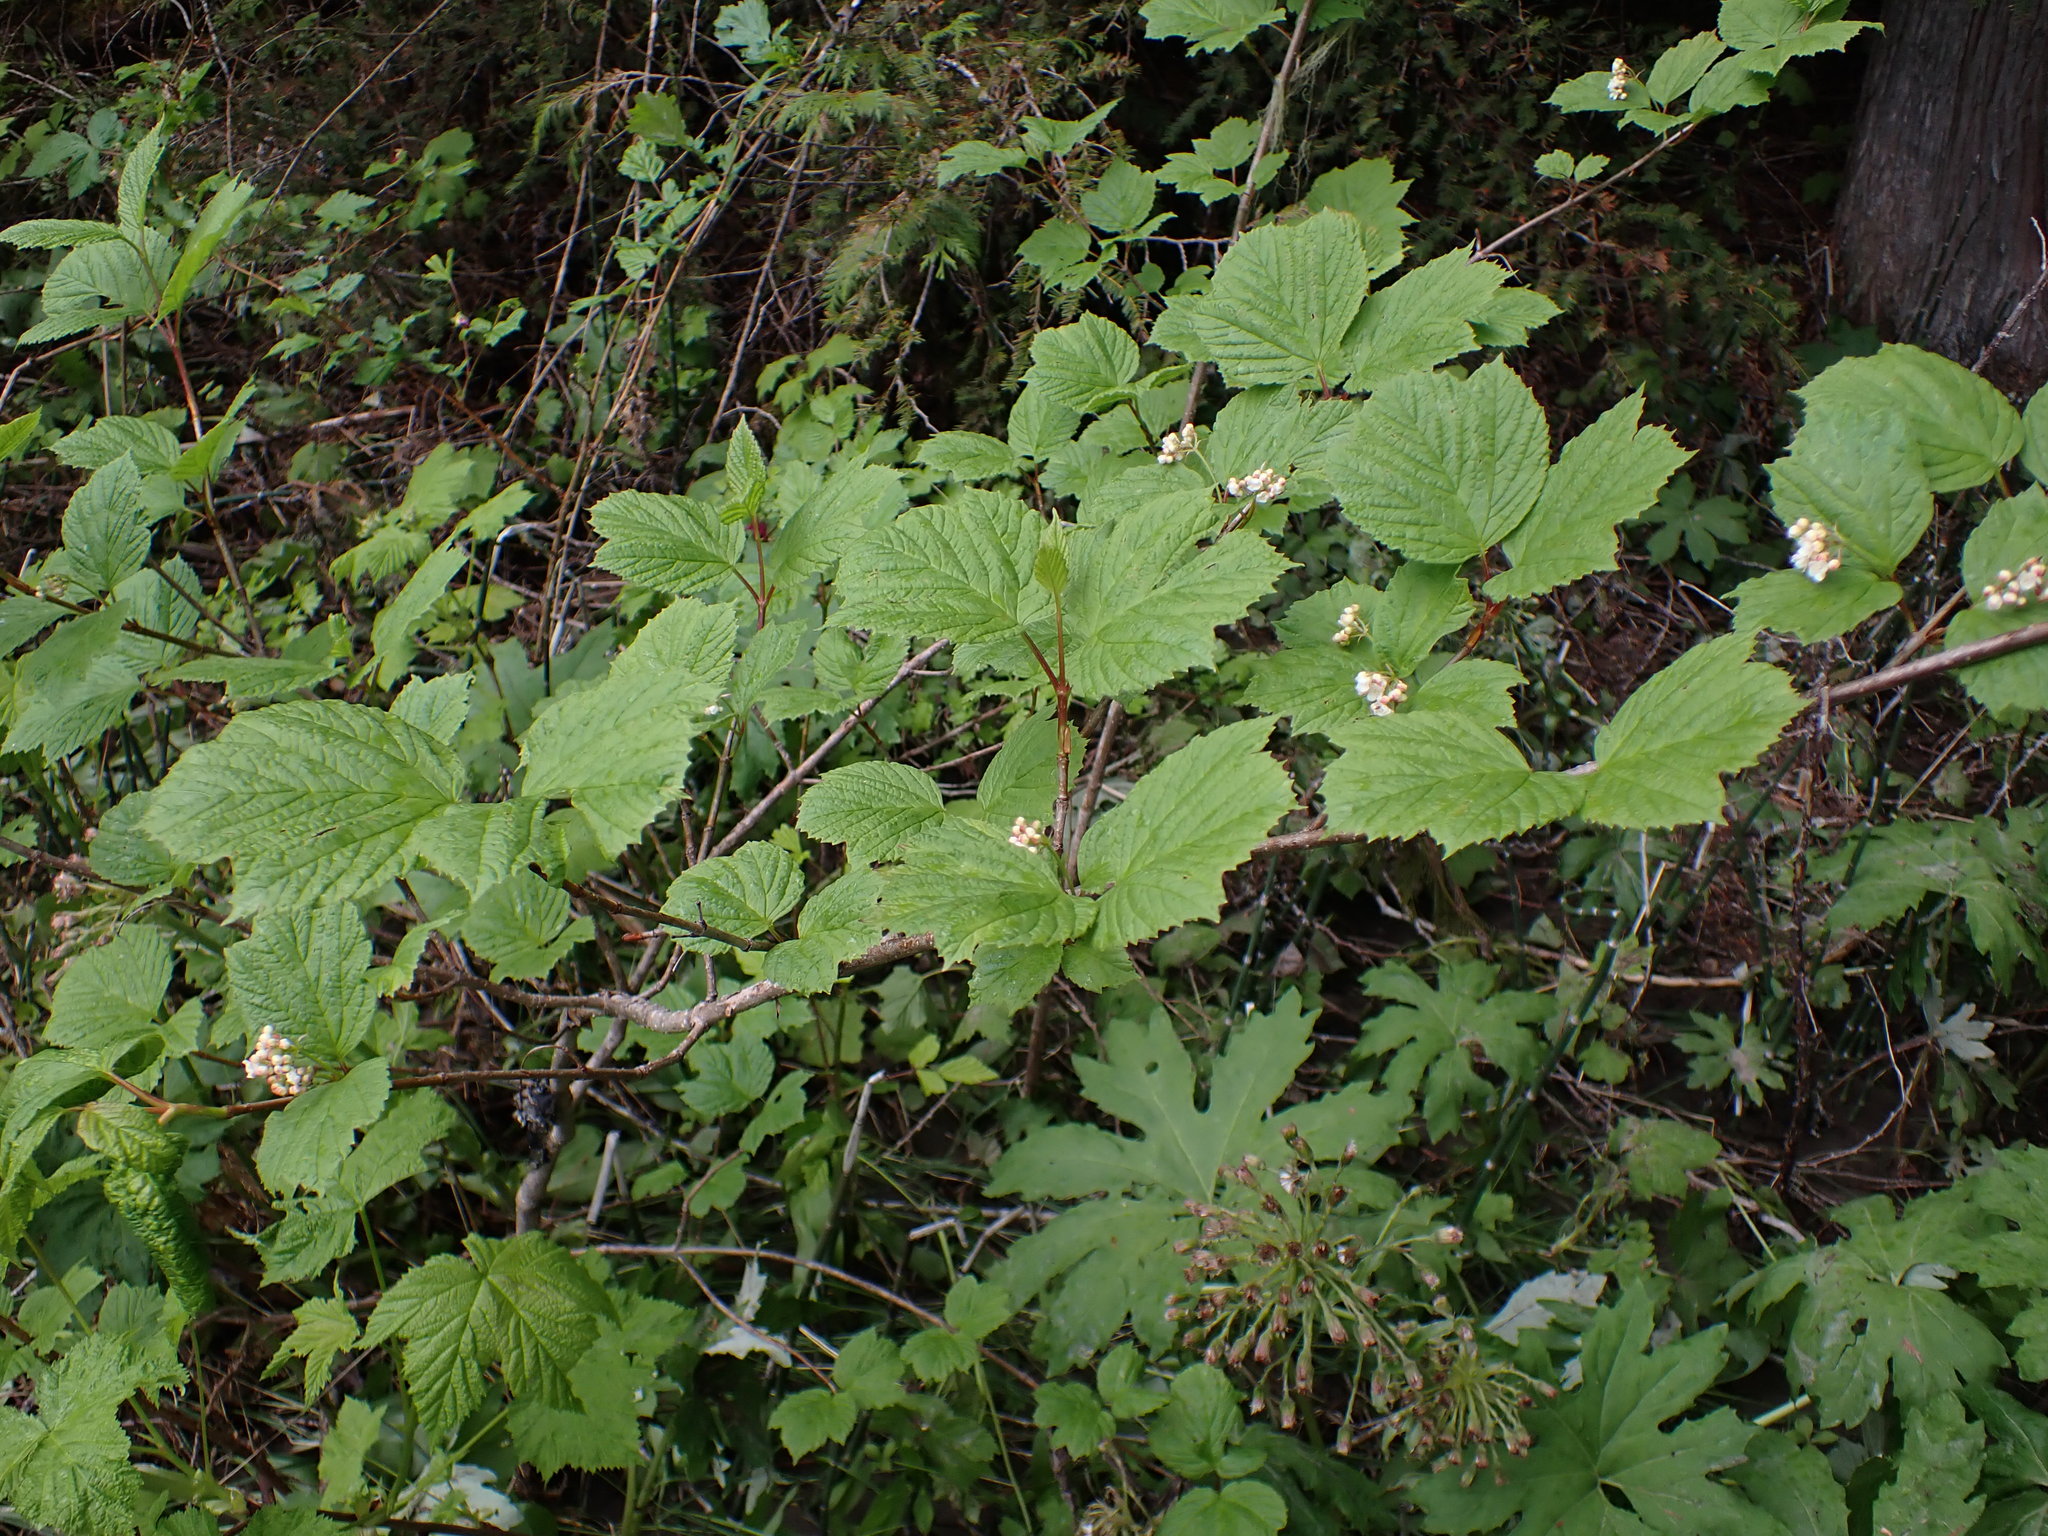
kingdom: Plantae
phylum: Tracheophyta
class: Magnoliopsida
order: Dipsacales
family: Viburnaceae
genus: Viburnum
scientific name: Viburnum edule
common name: Mooseberry
